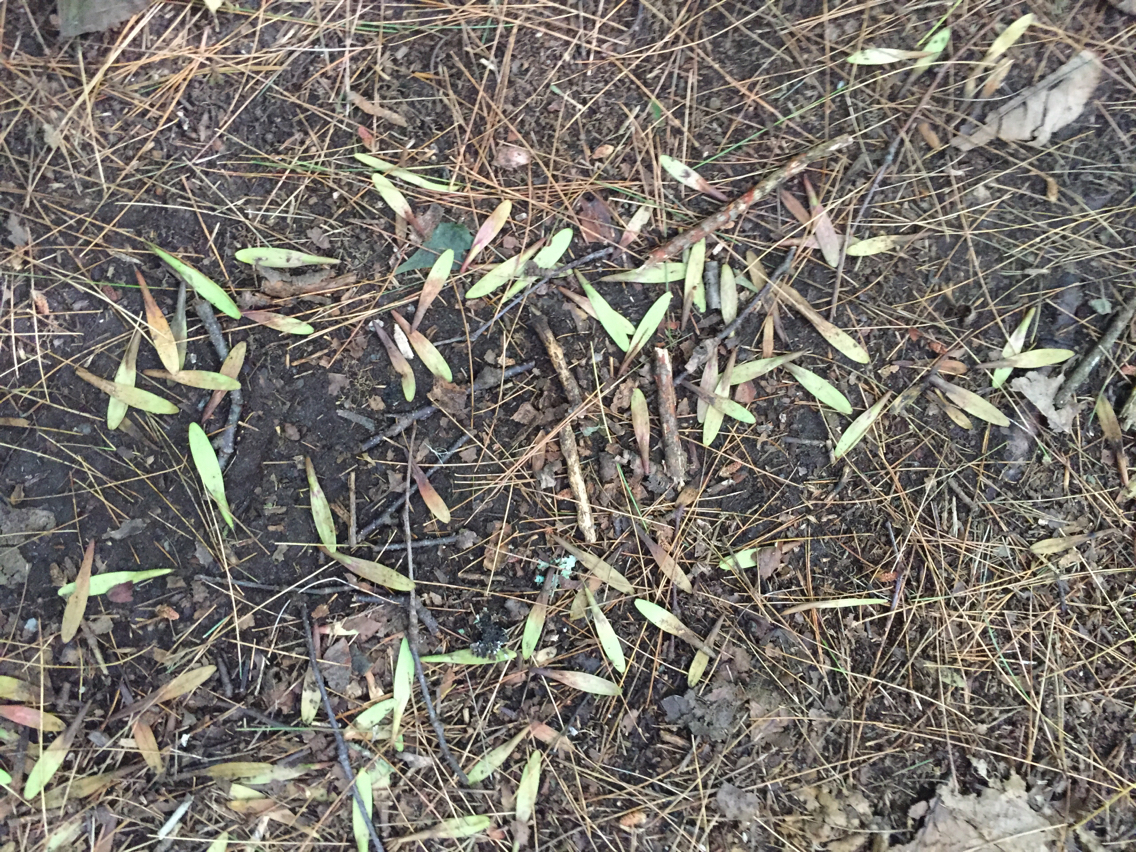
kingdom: Plantae
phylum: Tracheophyta
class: Magnoliopsida
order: Lamiales
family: Oleaceae
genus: Fraxinus
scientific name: Fraxinus americana
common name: White ash
